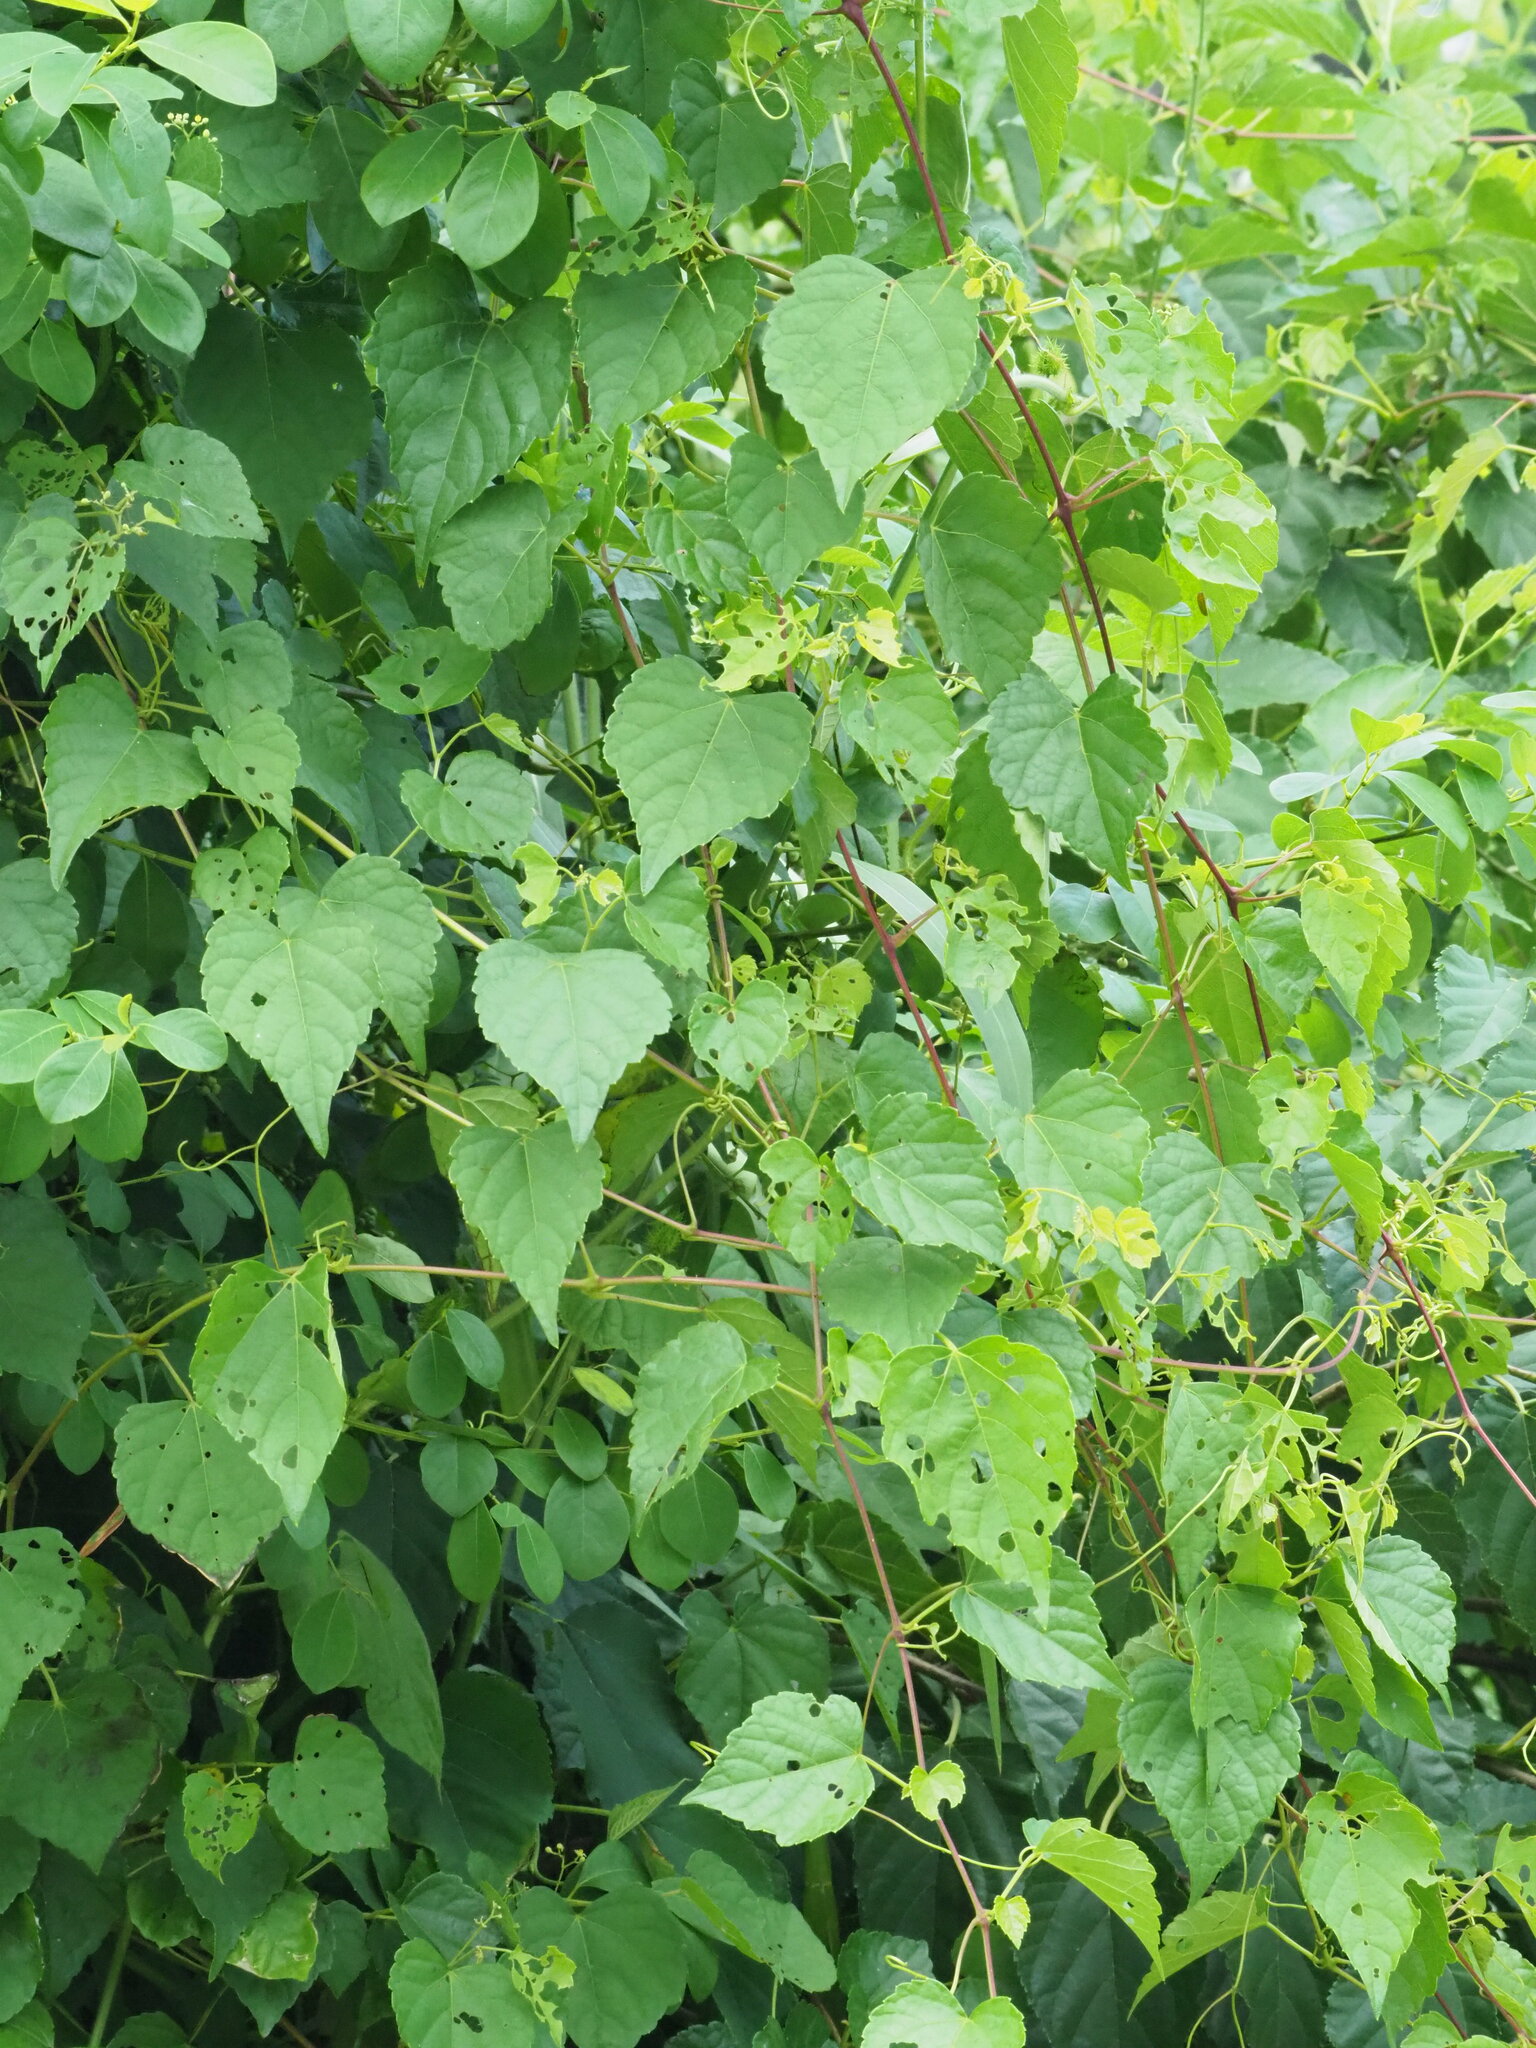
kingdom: Plantae
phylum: Tracheophyta
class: Magnoliopsida
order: Vitales
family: Vitaceae
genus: Ampelopsis
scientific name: Ampelopsis glandulosa
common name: Amur peppervine
